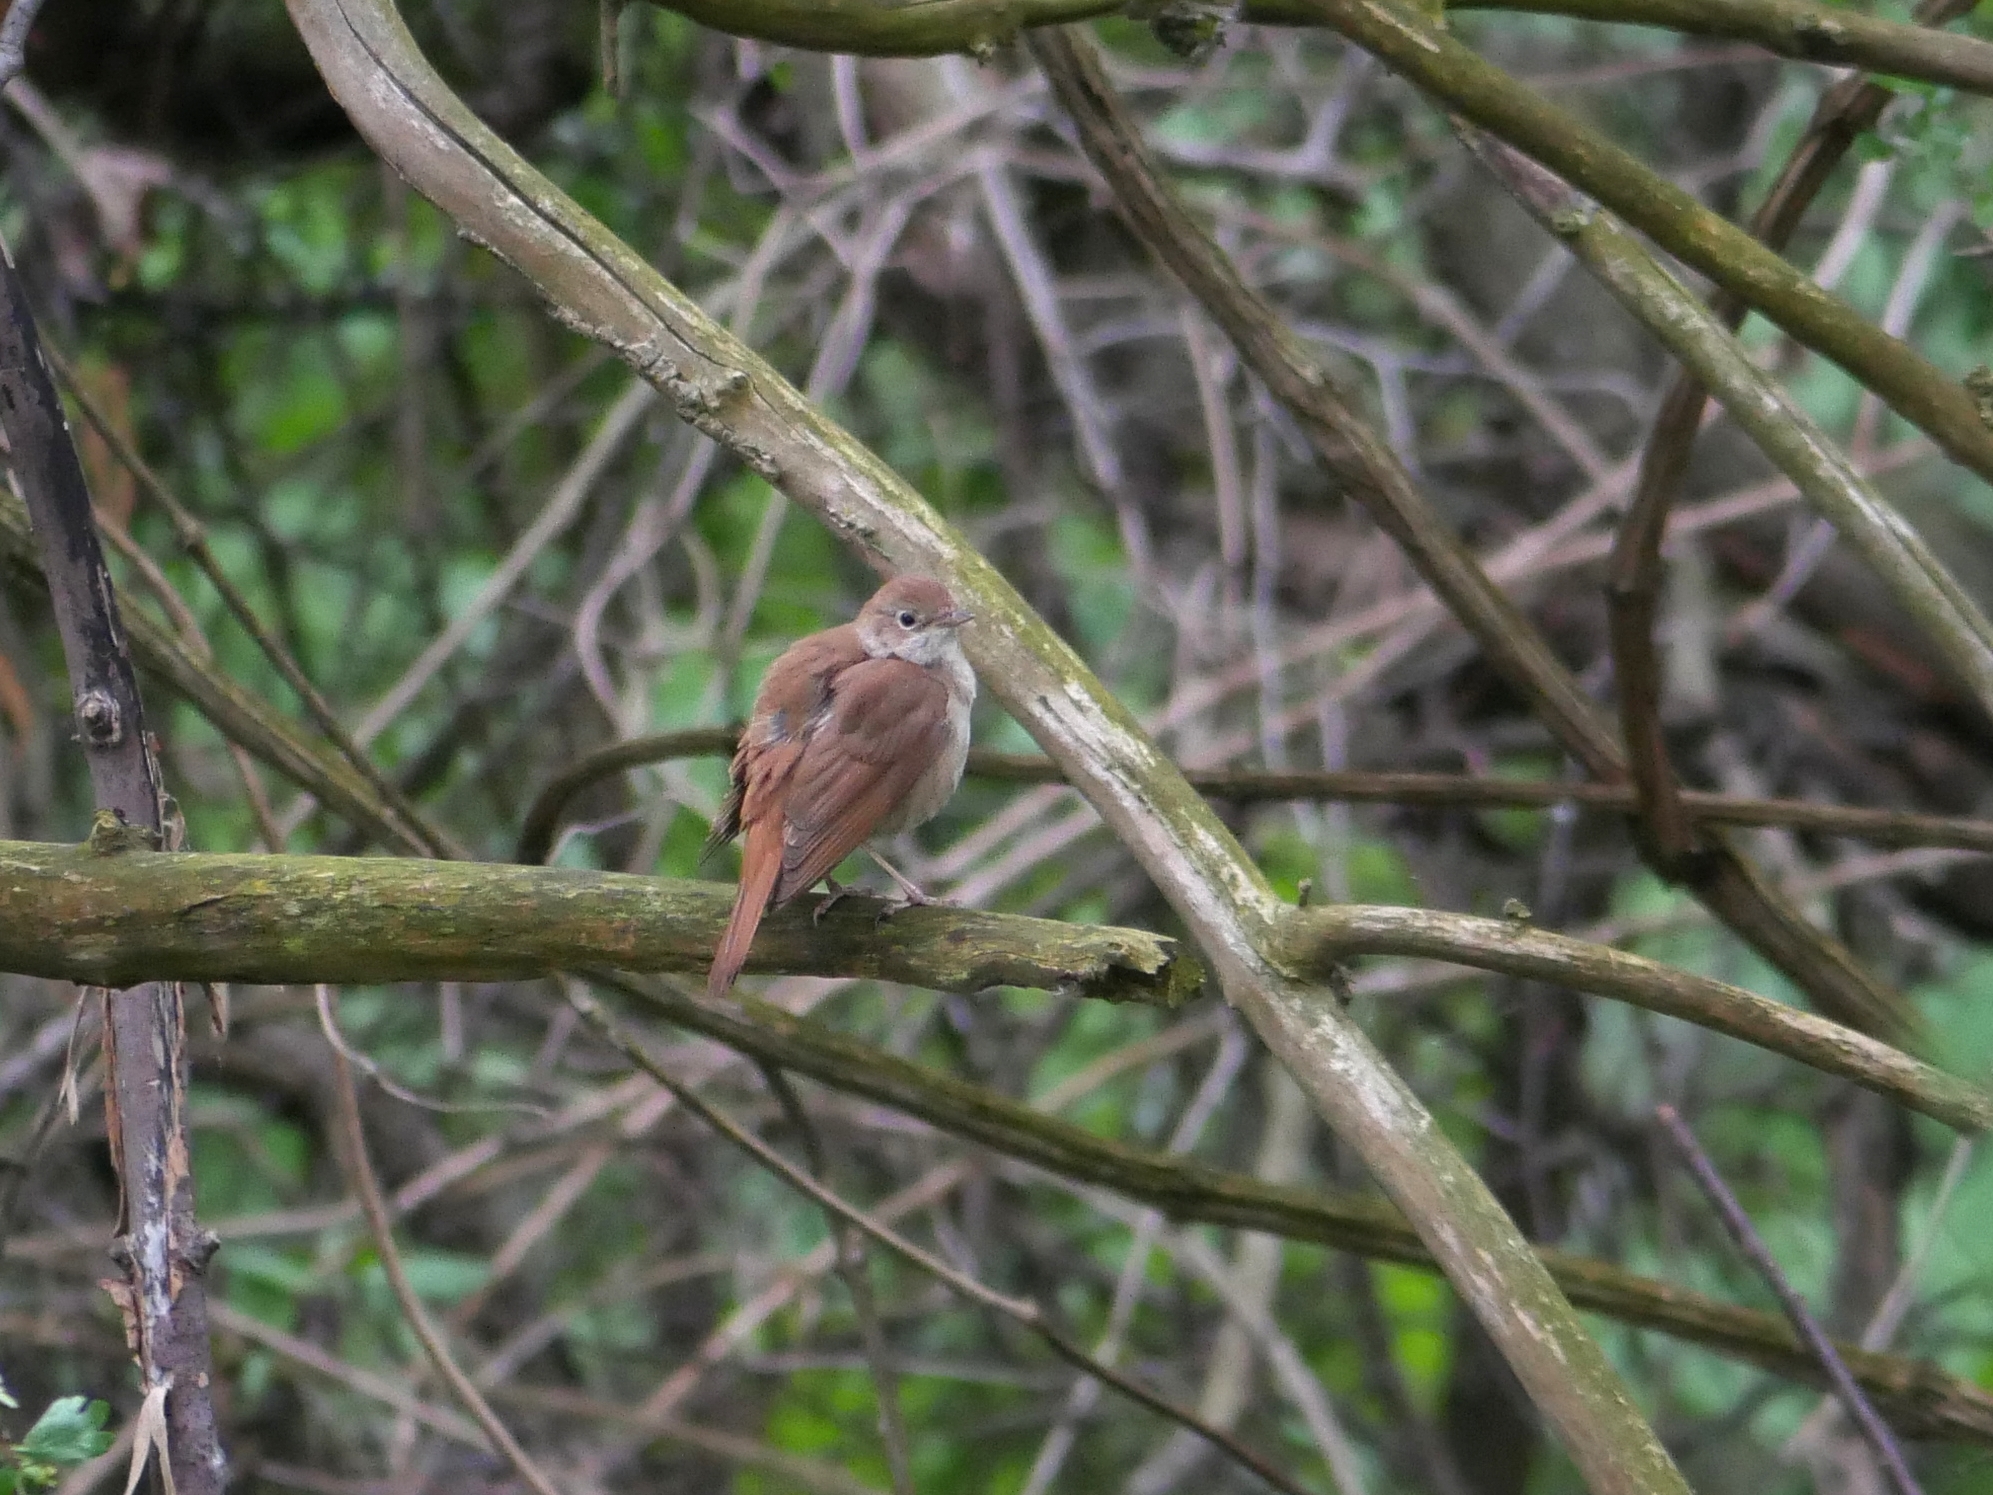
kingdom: Animalia
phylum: Chordata
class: Aves
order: Passeriformes
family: Muscicapidae
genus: Luscinia
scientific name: Luscinia megarhynchos
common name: Common nightingale
